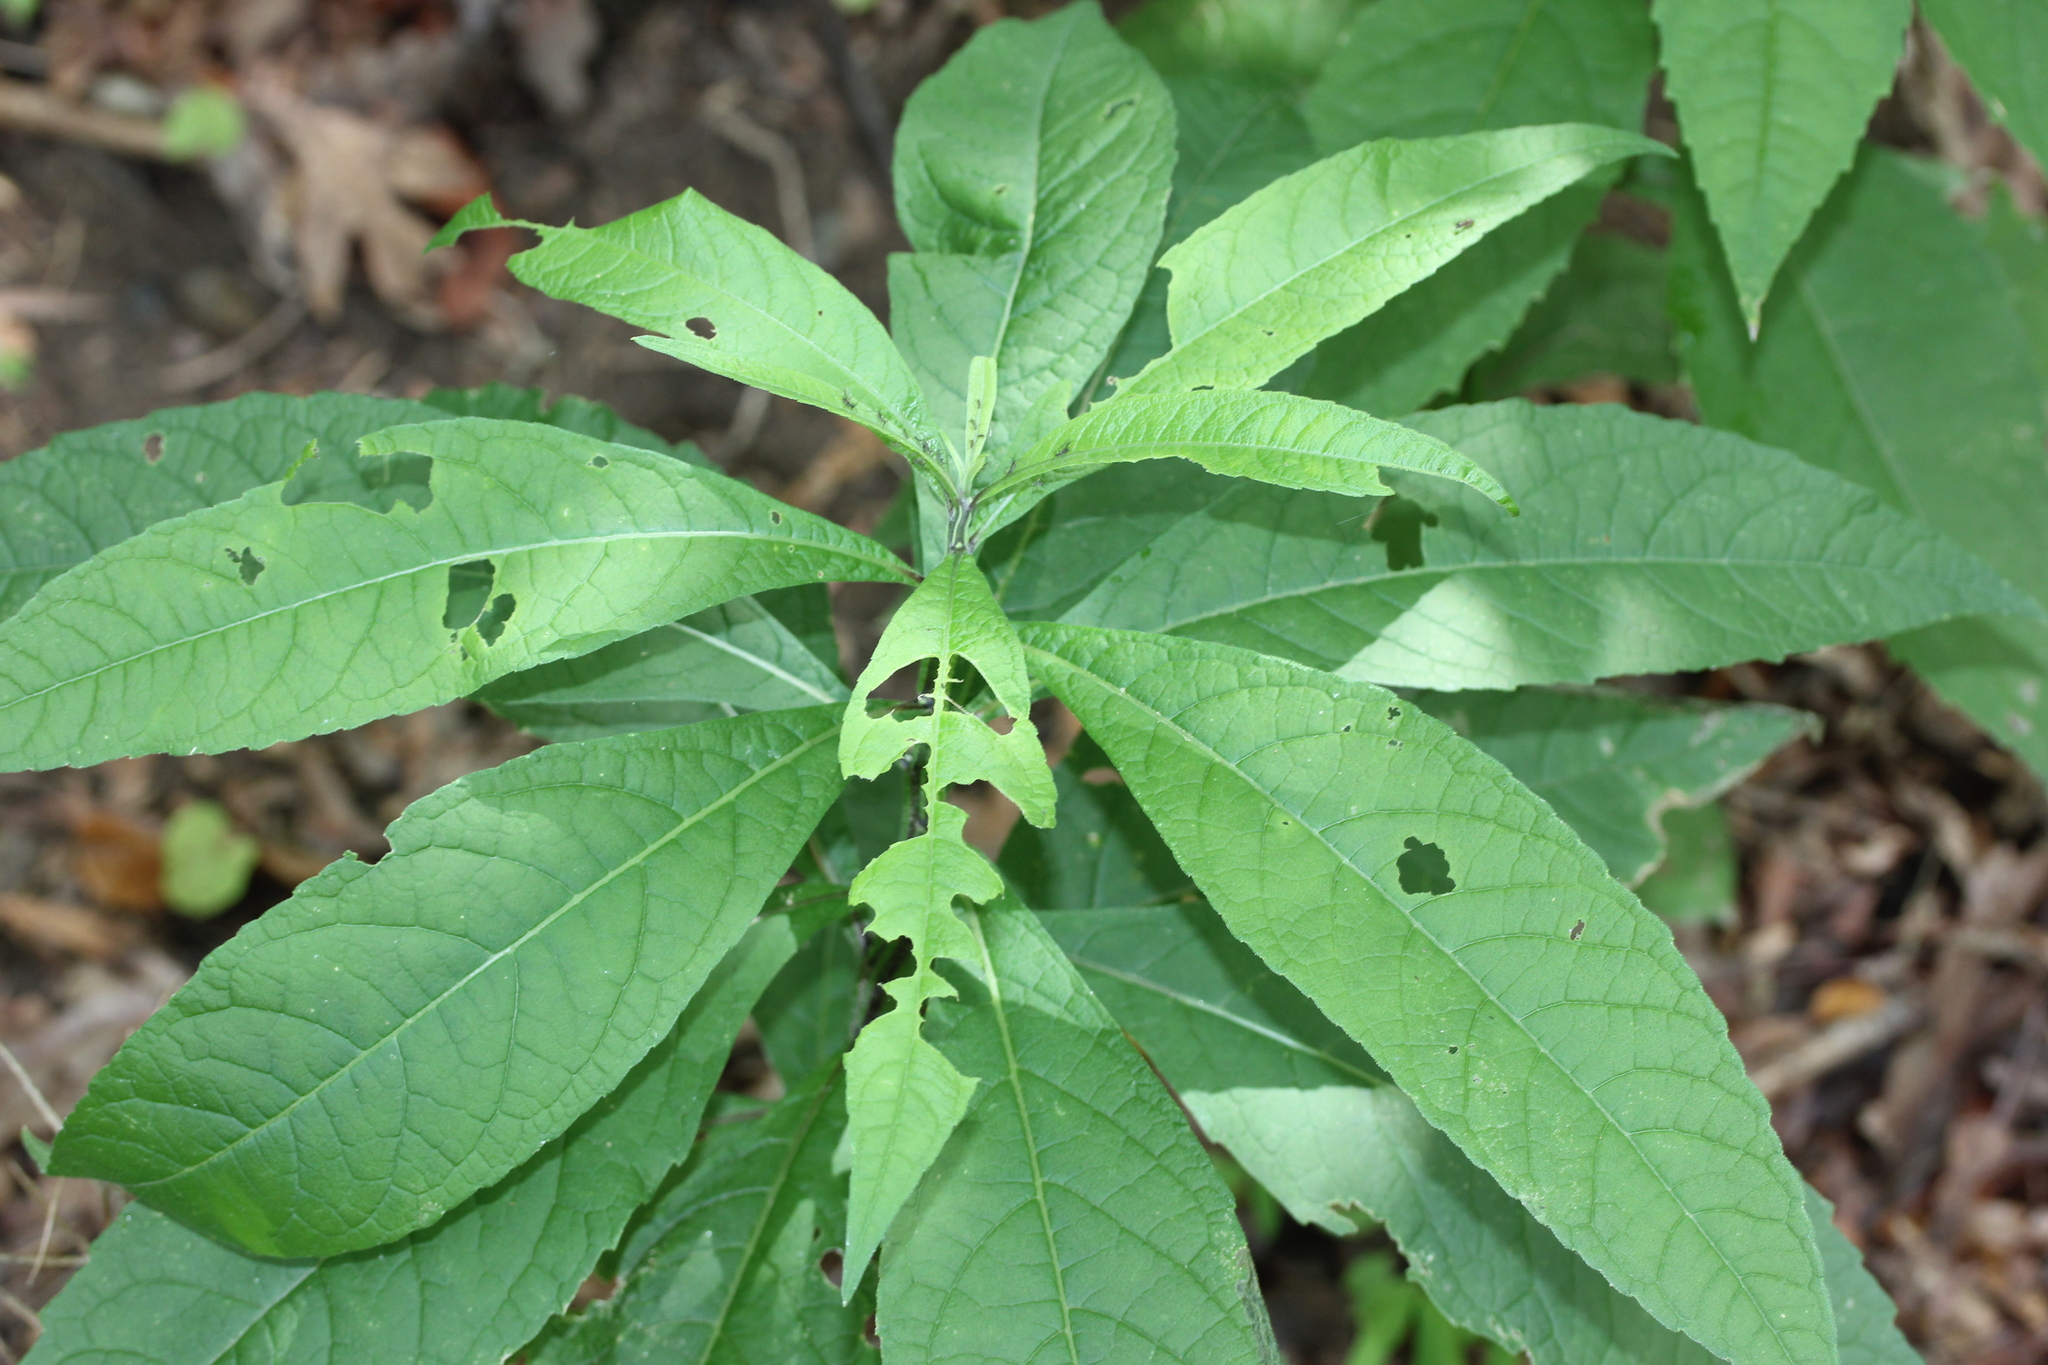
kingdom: Plantae
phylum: Tracheophyta
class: Magnoliopsida
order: Asterales
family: Asteraceae
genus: Verbesina
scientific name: Verbesina alternifolia
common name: Wingstem
